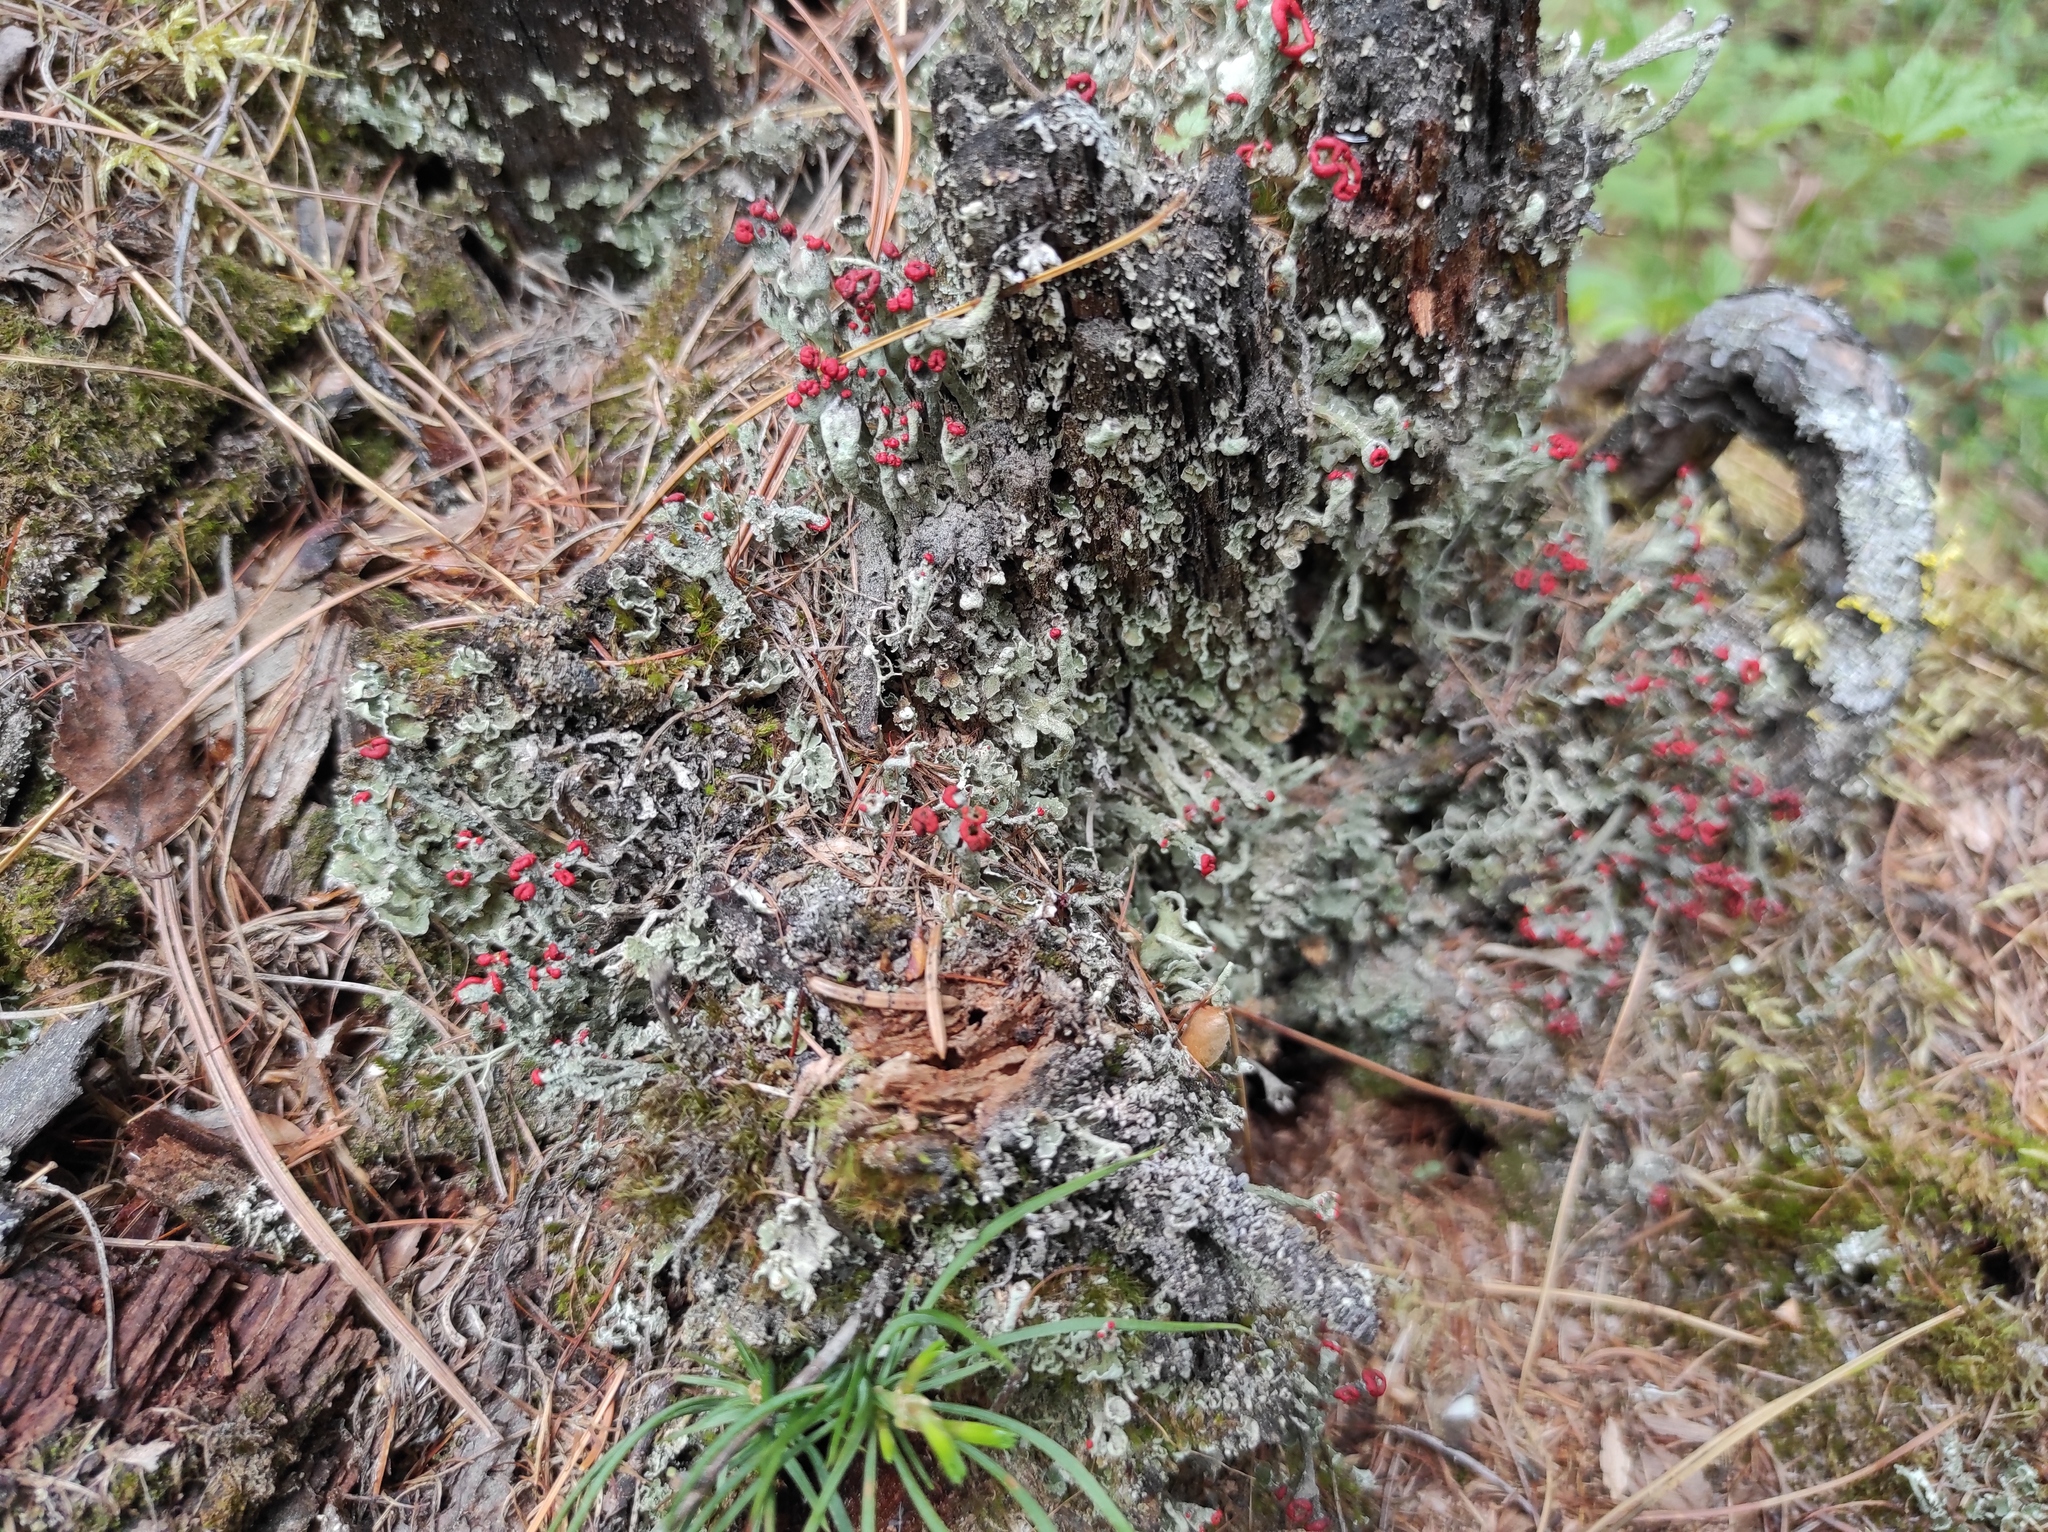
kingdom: Plantae
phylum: Tracheophyta
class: Pinopsida
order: Pinales
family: Pinaceae
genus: Pinus
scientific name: Pinus sylvestris
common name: Scots pine
